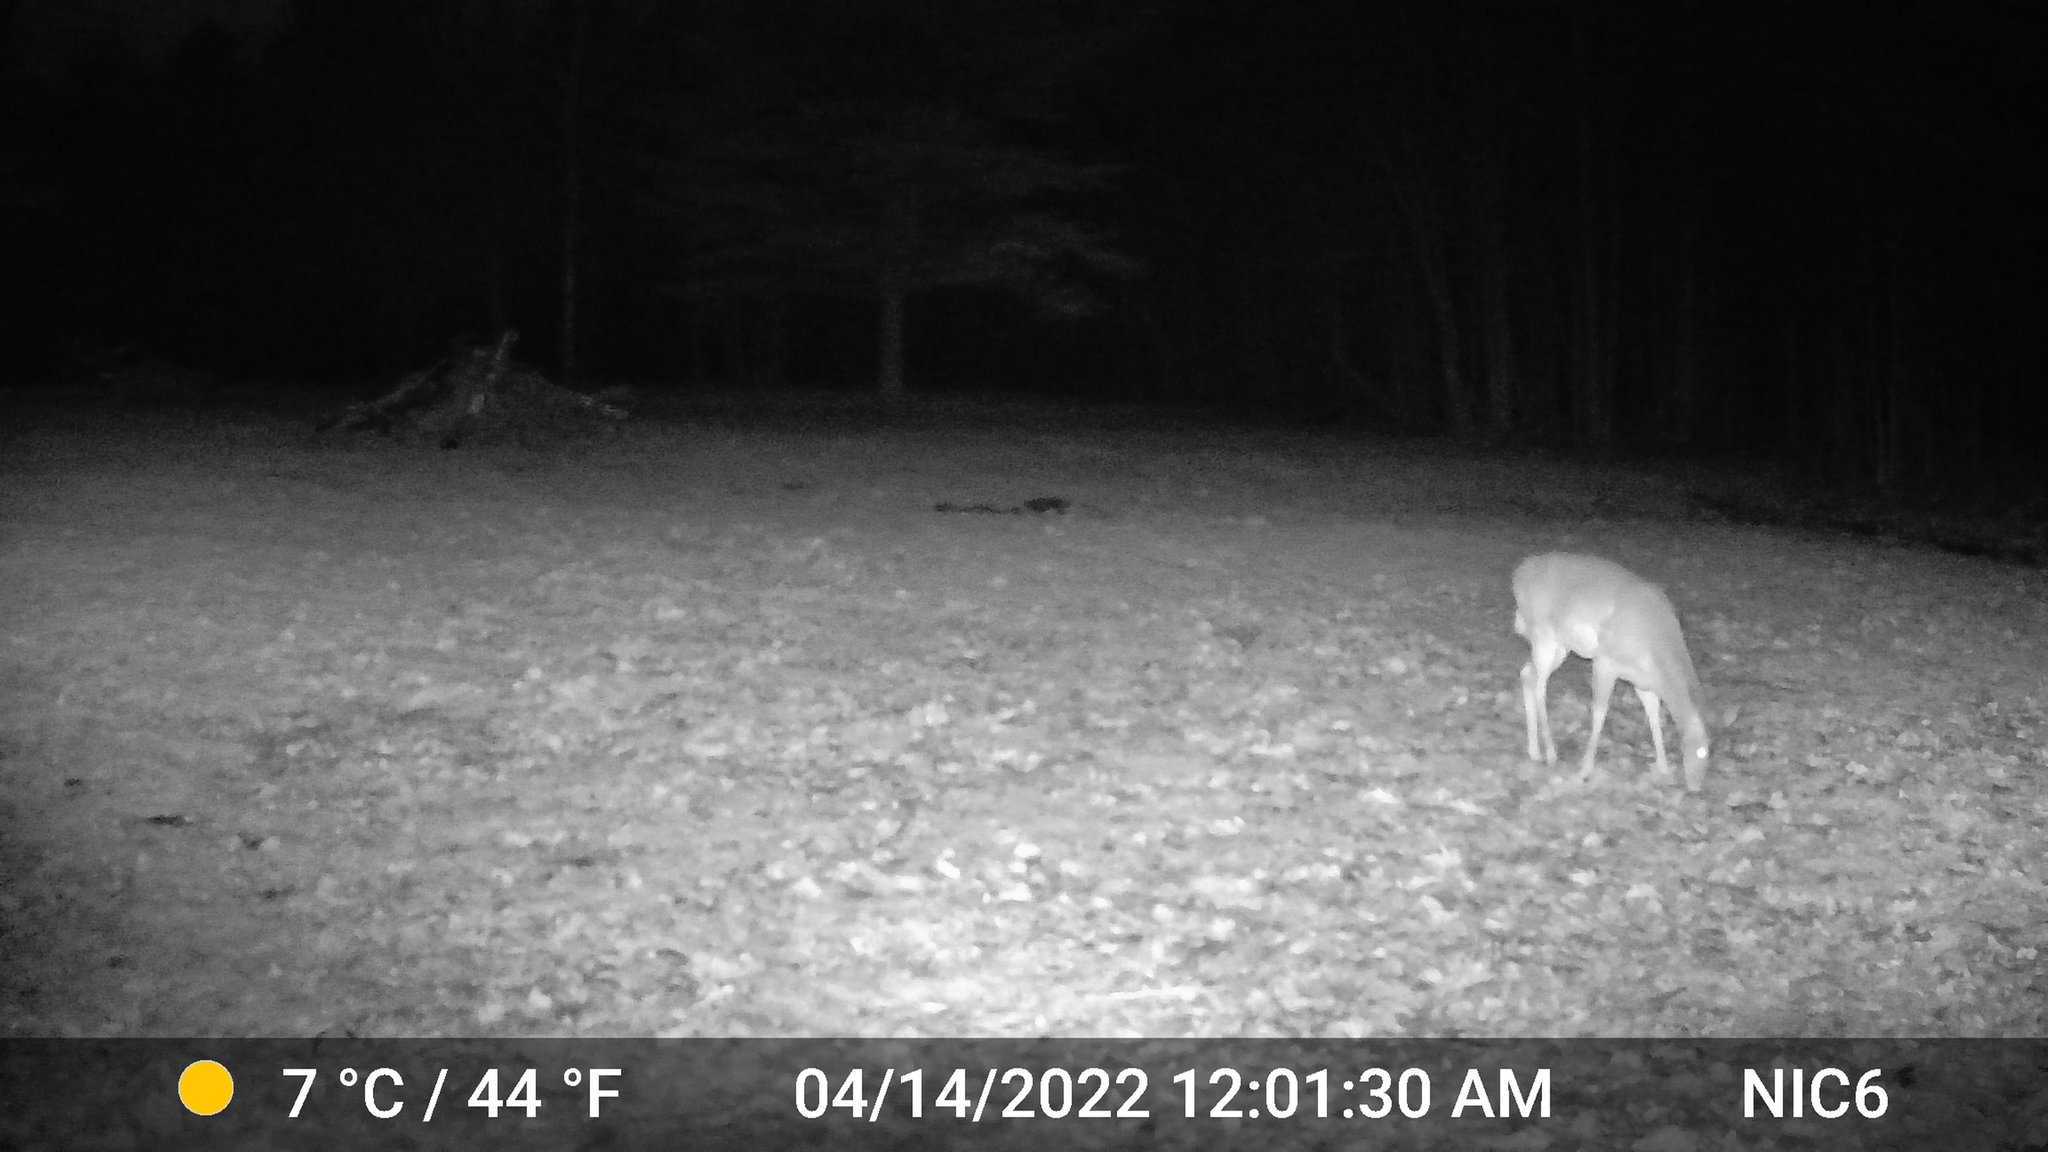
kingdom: Animalia
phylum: Chordata
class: Mammalia
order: Artiodactyla
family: Cervidae
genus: Odocoileus
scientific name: Odocoileus virginianus
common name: White-tailed deer
